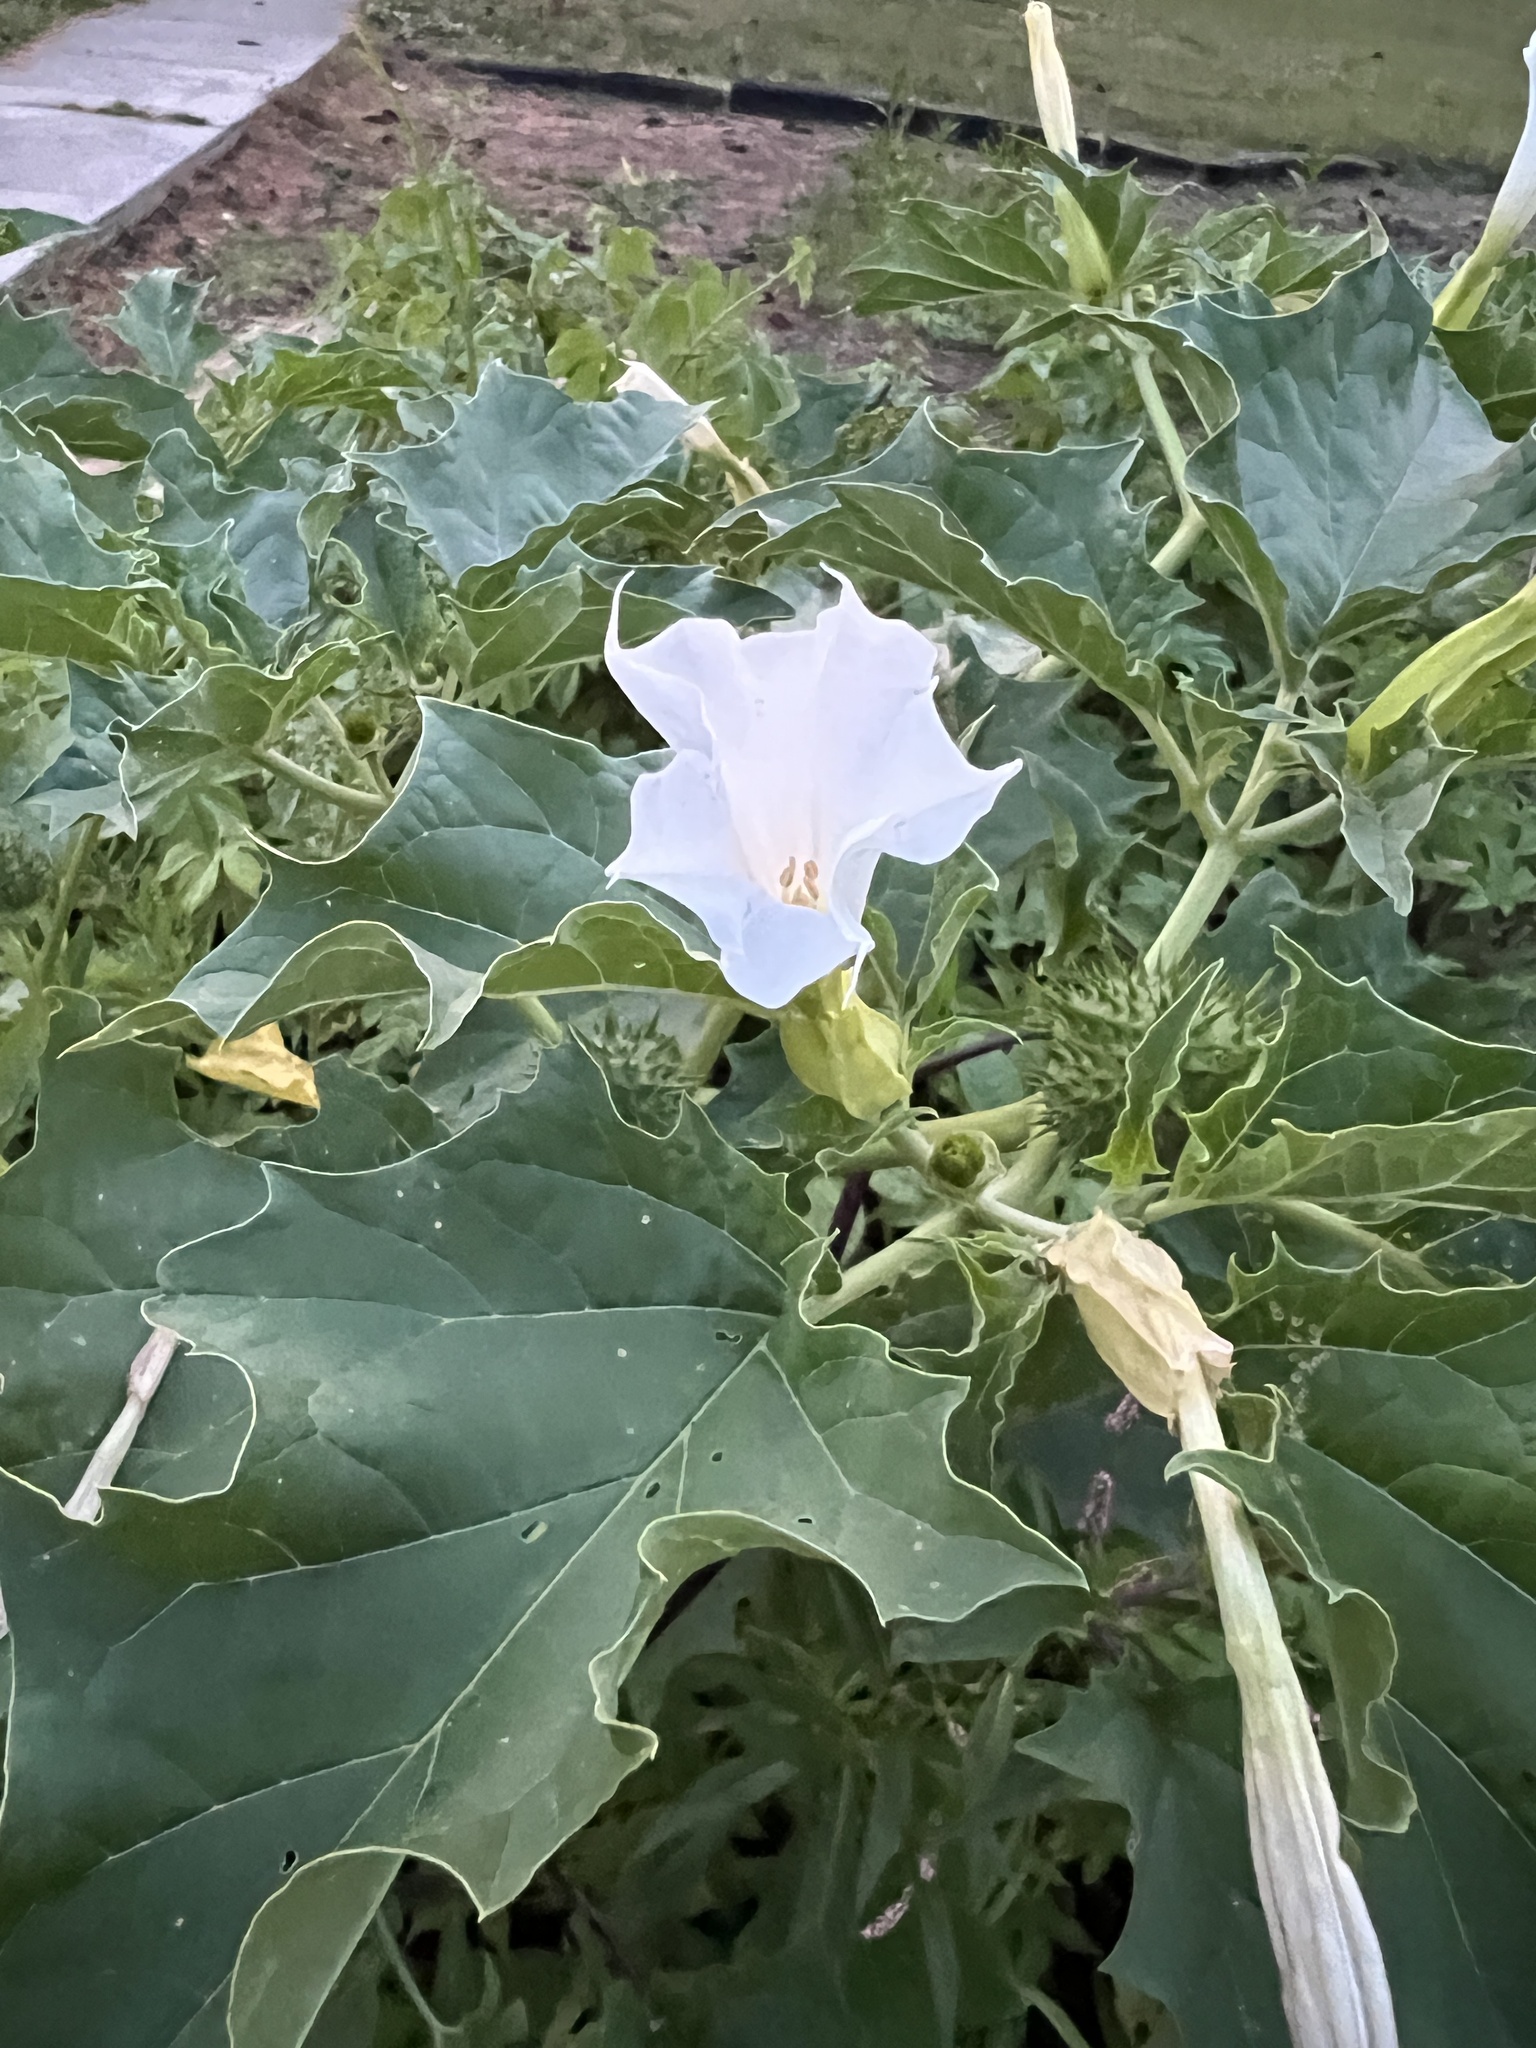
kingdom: Plantae
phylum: Tracheophyta
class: Magnoliopsida
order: Solanales
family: Solanaceae
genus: Datura
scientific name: Datura stramonium
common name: Thorn-apple
